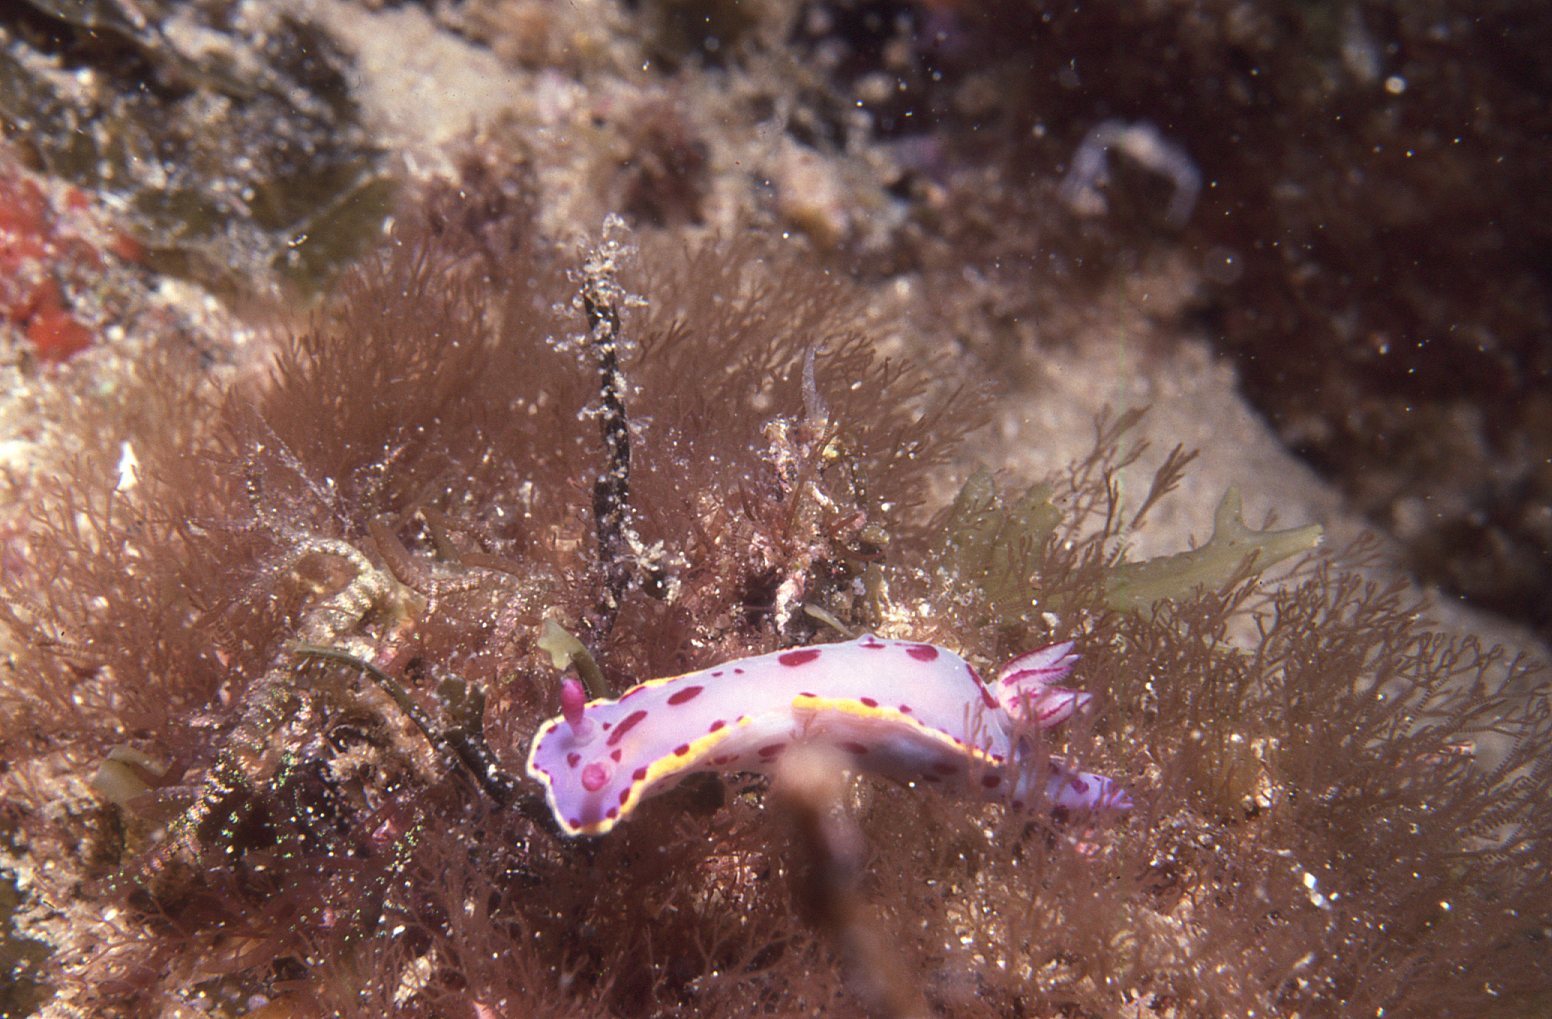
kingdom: Animalia
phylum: Mollusca
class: Gastropoda
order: Nudibranchia
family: Chromodorididae
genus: Hypselodoris
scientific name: Hypselodoris bennetti
